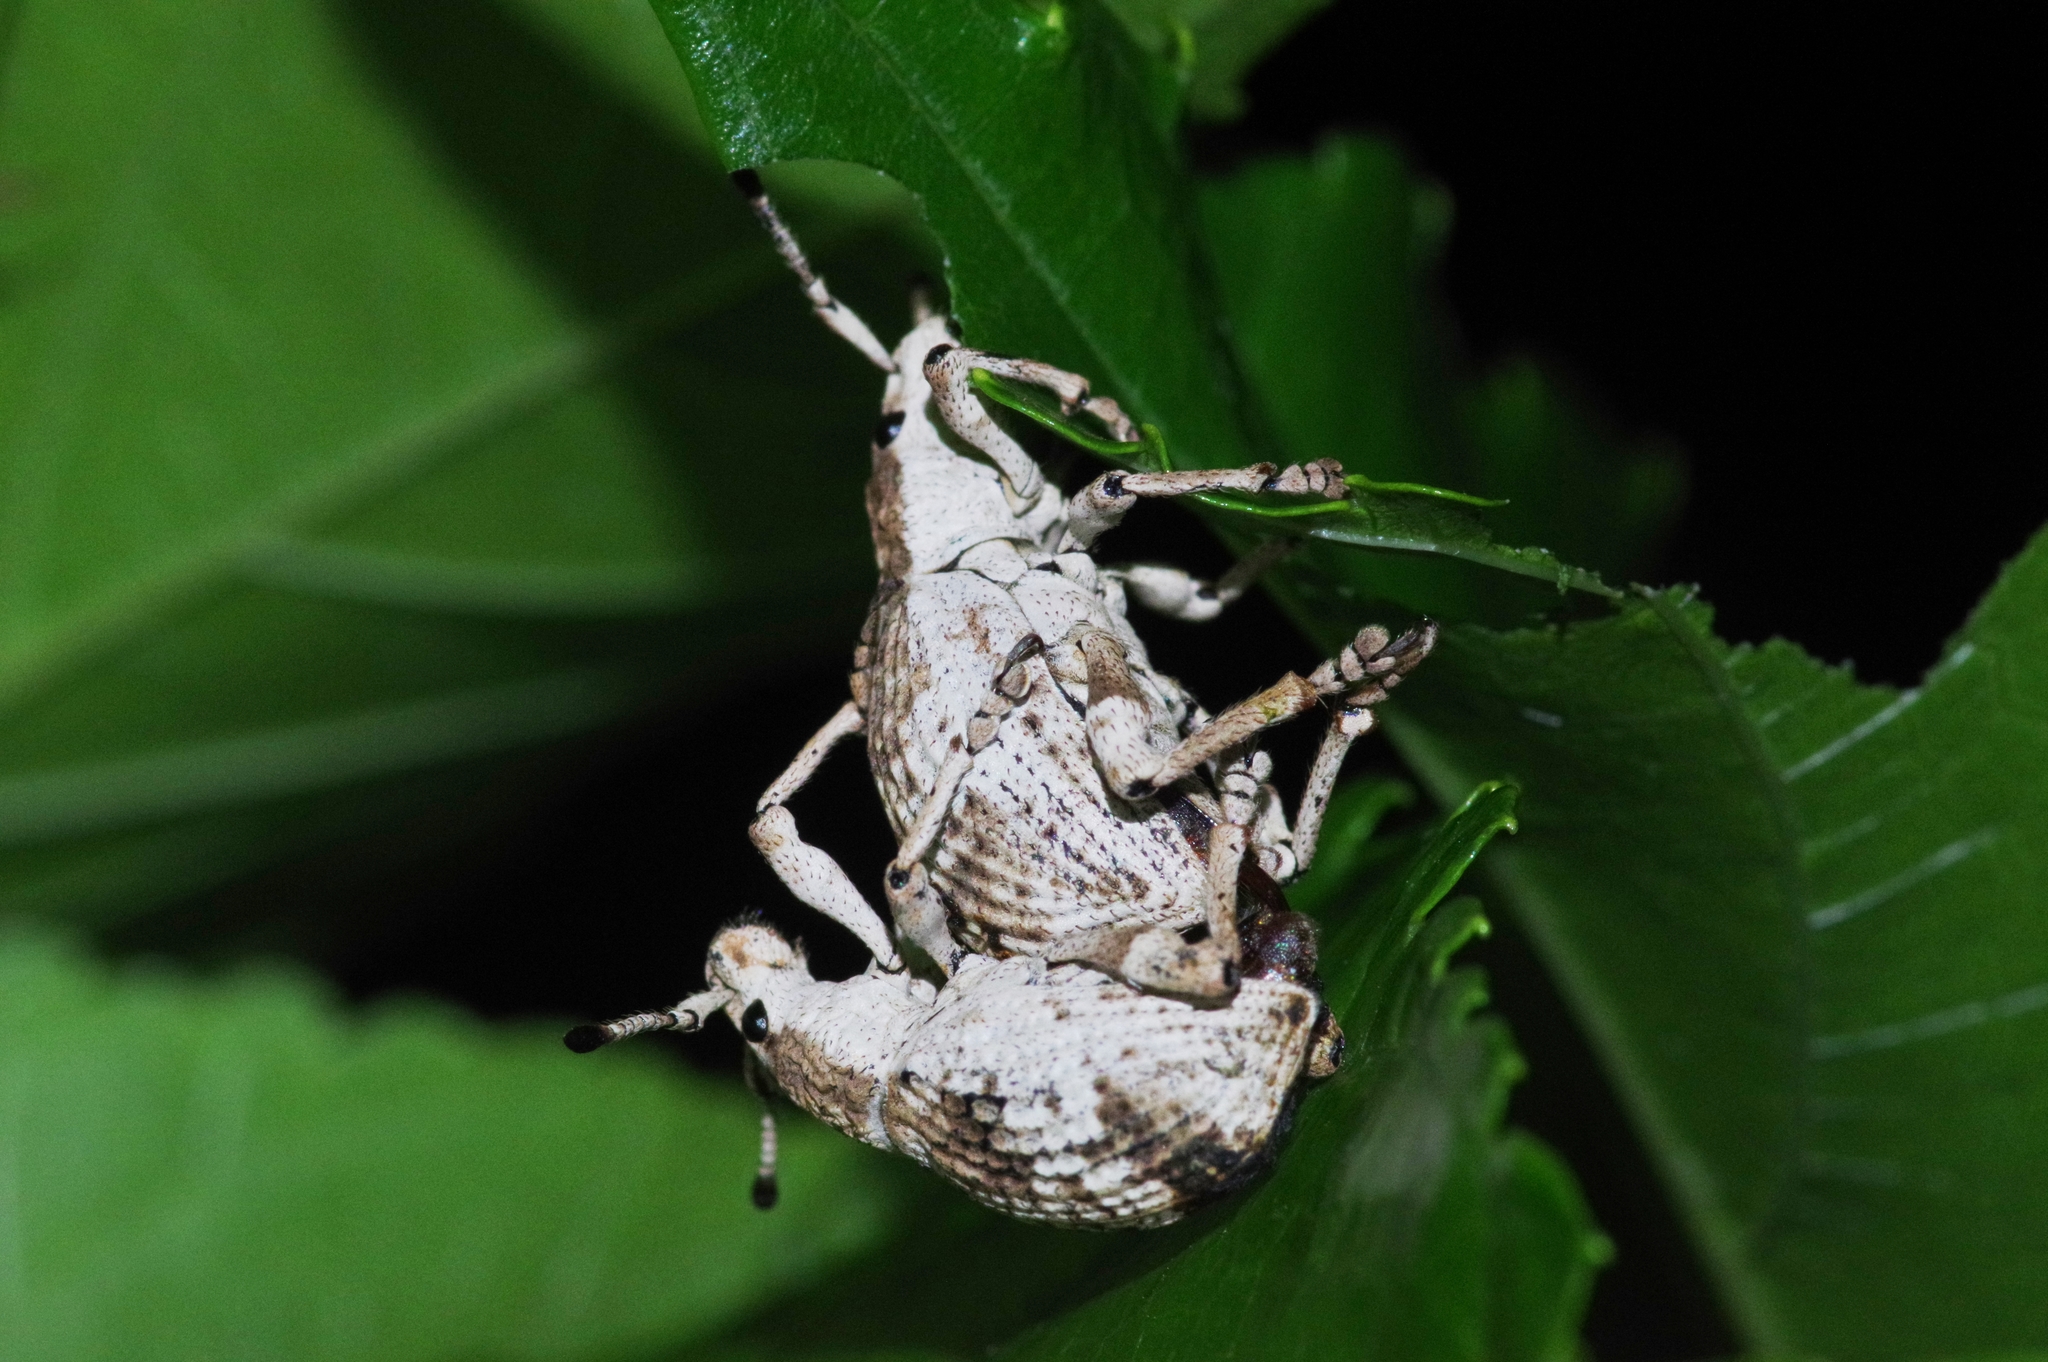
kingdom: Animalia
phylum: Arthropoda
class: Insecta
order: Coleoptera
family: Curculionidae
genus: Episomus
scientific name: Episomus mori
